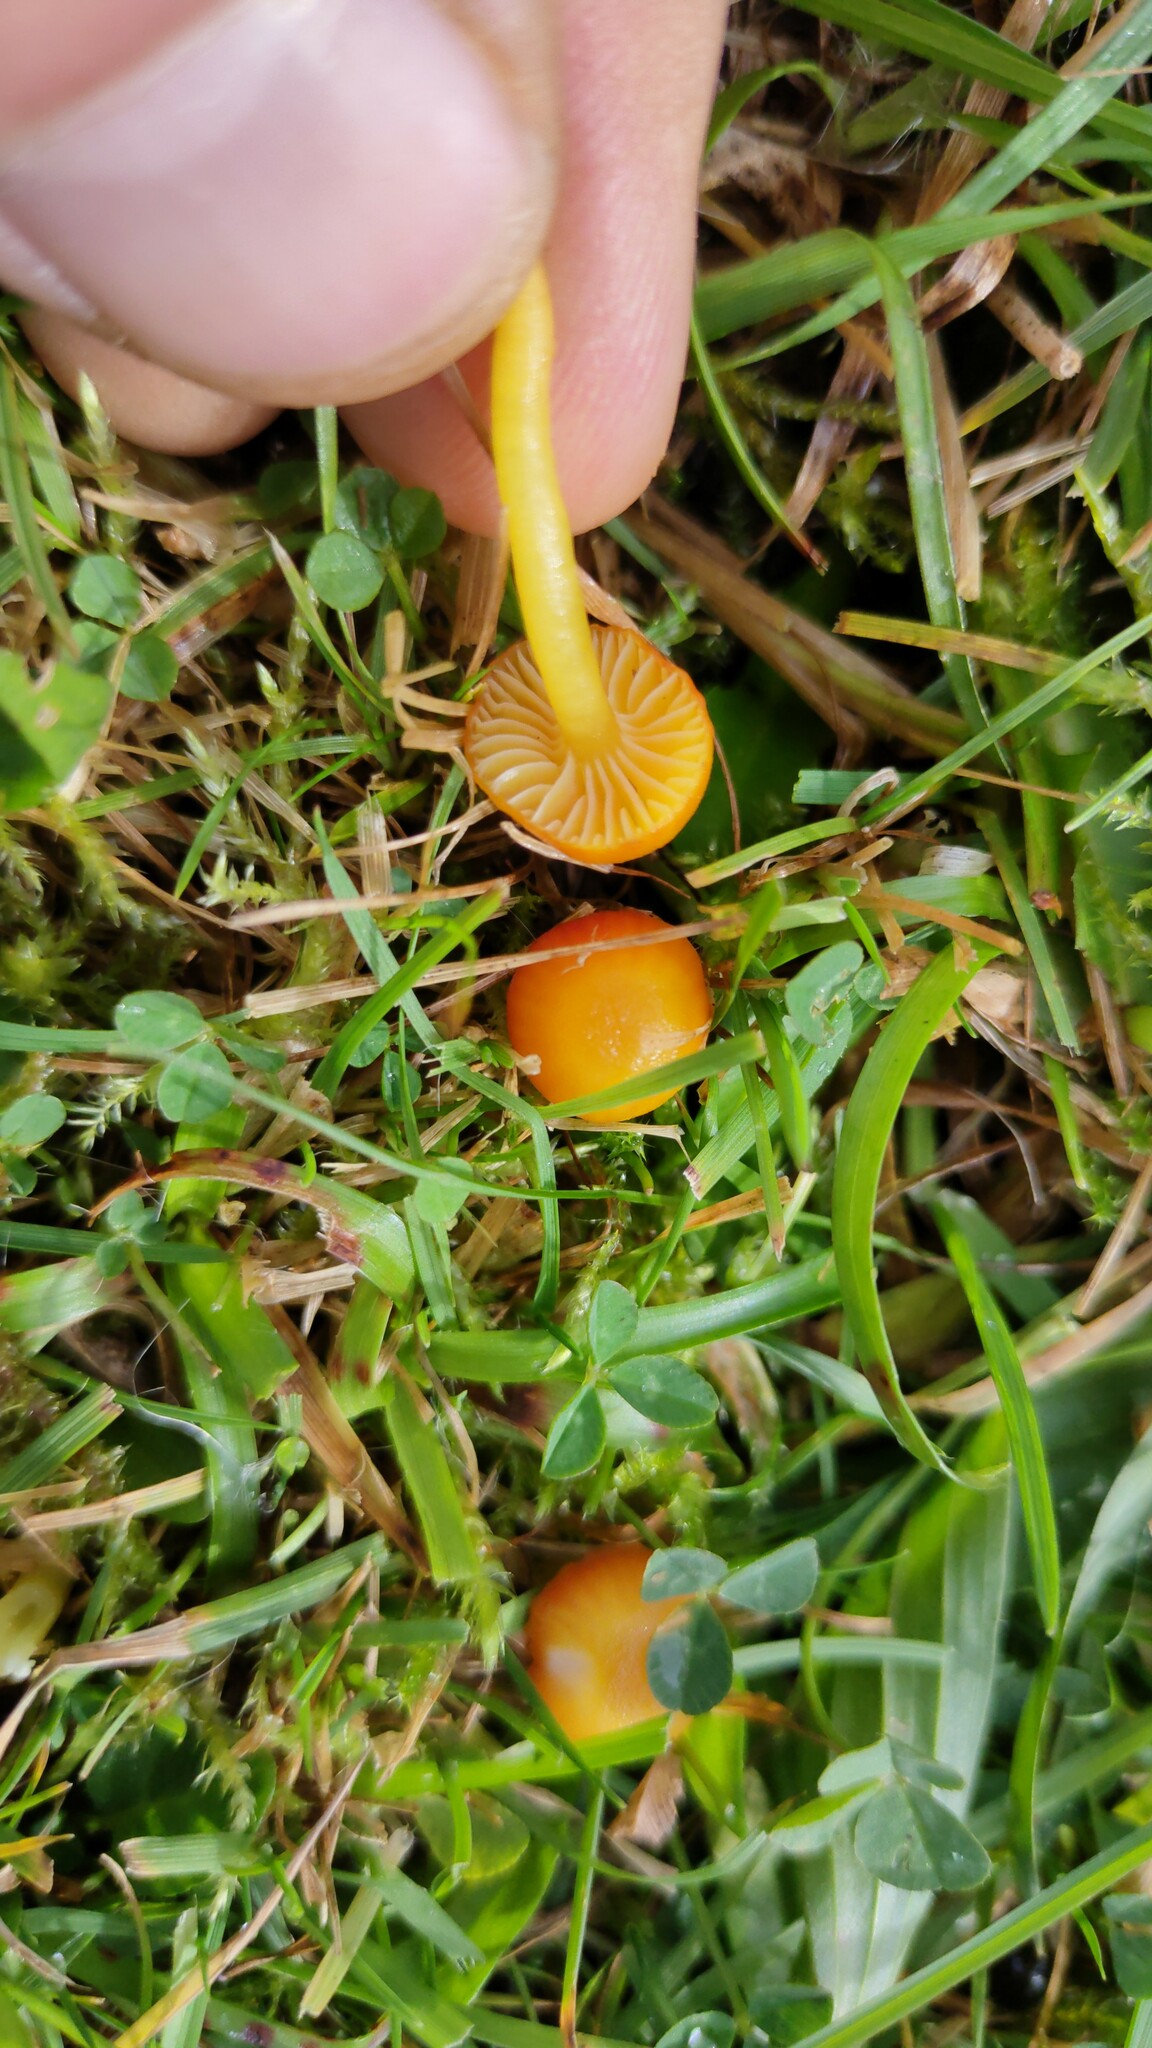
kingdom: Fungi
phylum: Basidiomycota
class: Agaricomycetes
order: Agaricales
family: Hygrophoraceae
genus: Hygrocybe
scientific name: Hygrocybe insipida
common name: Spangle waxcap
